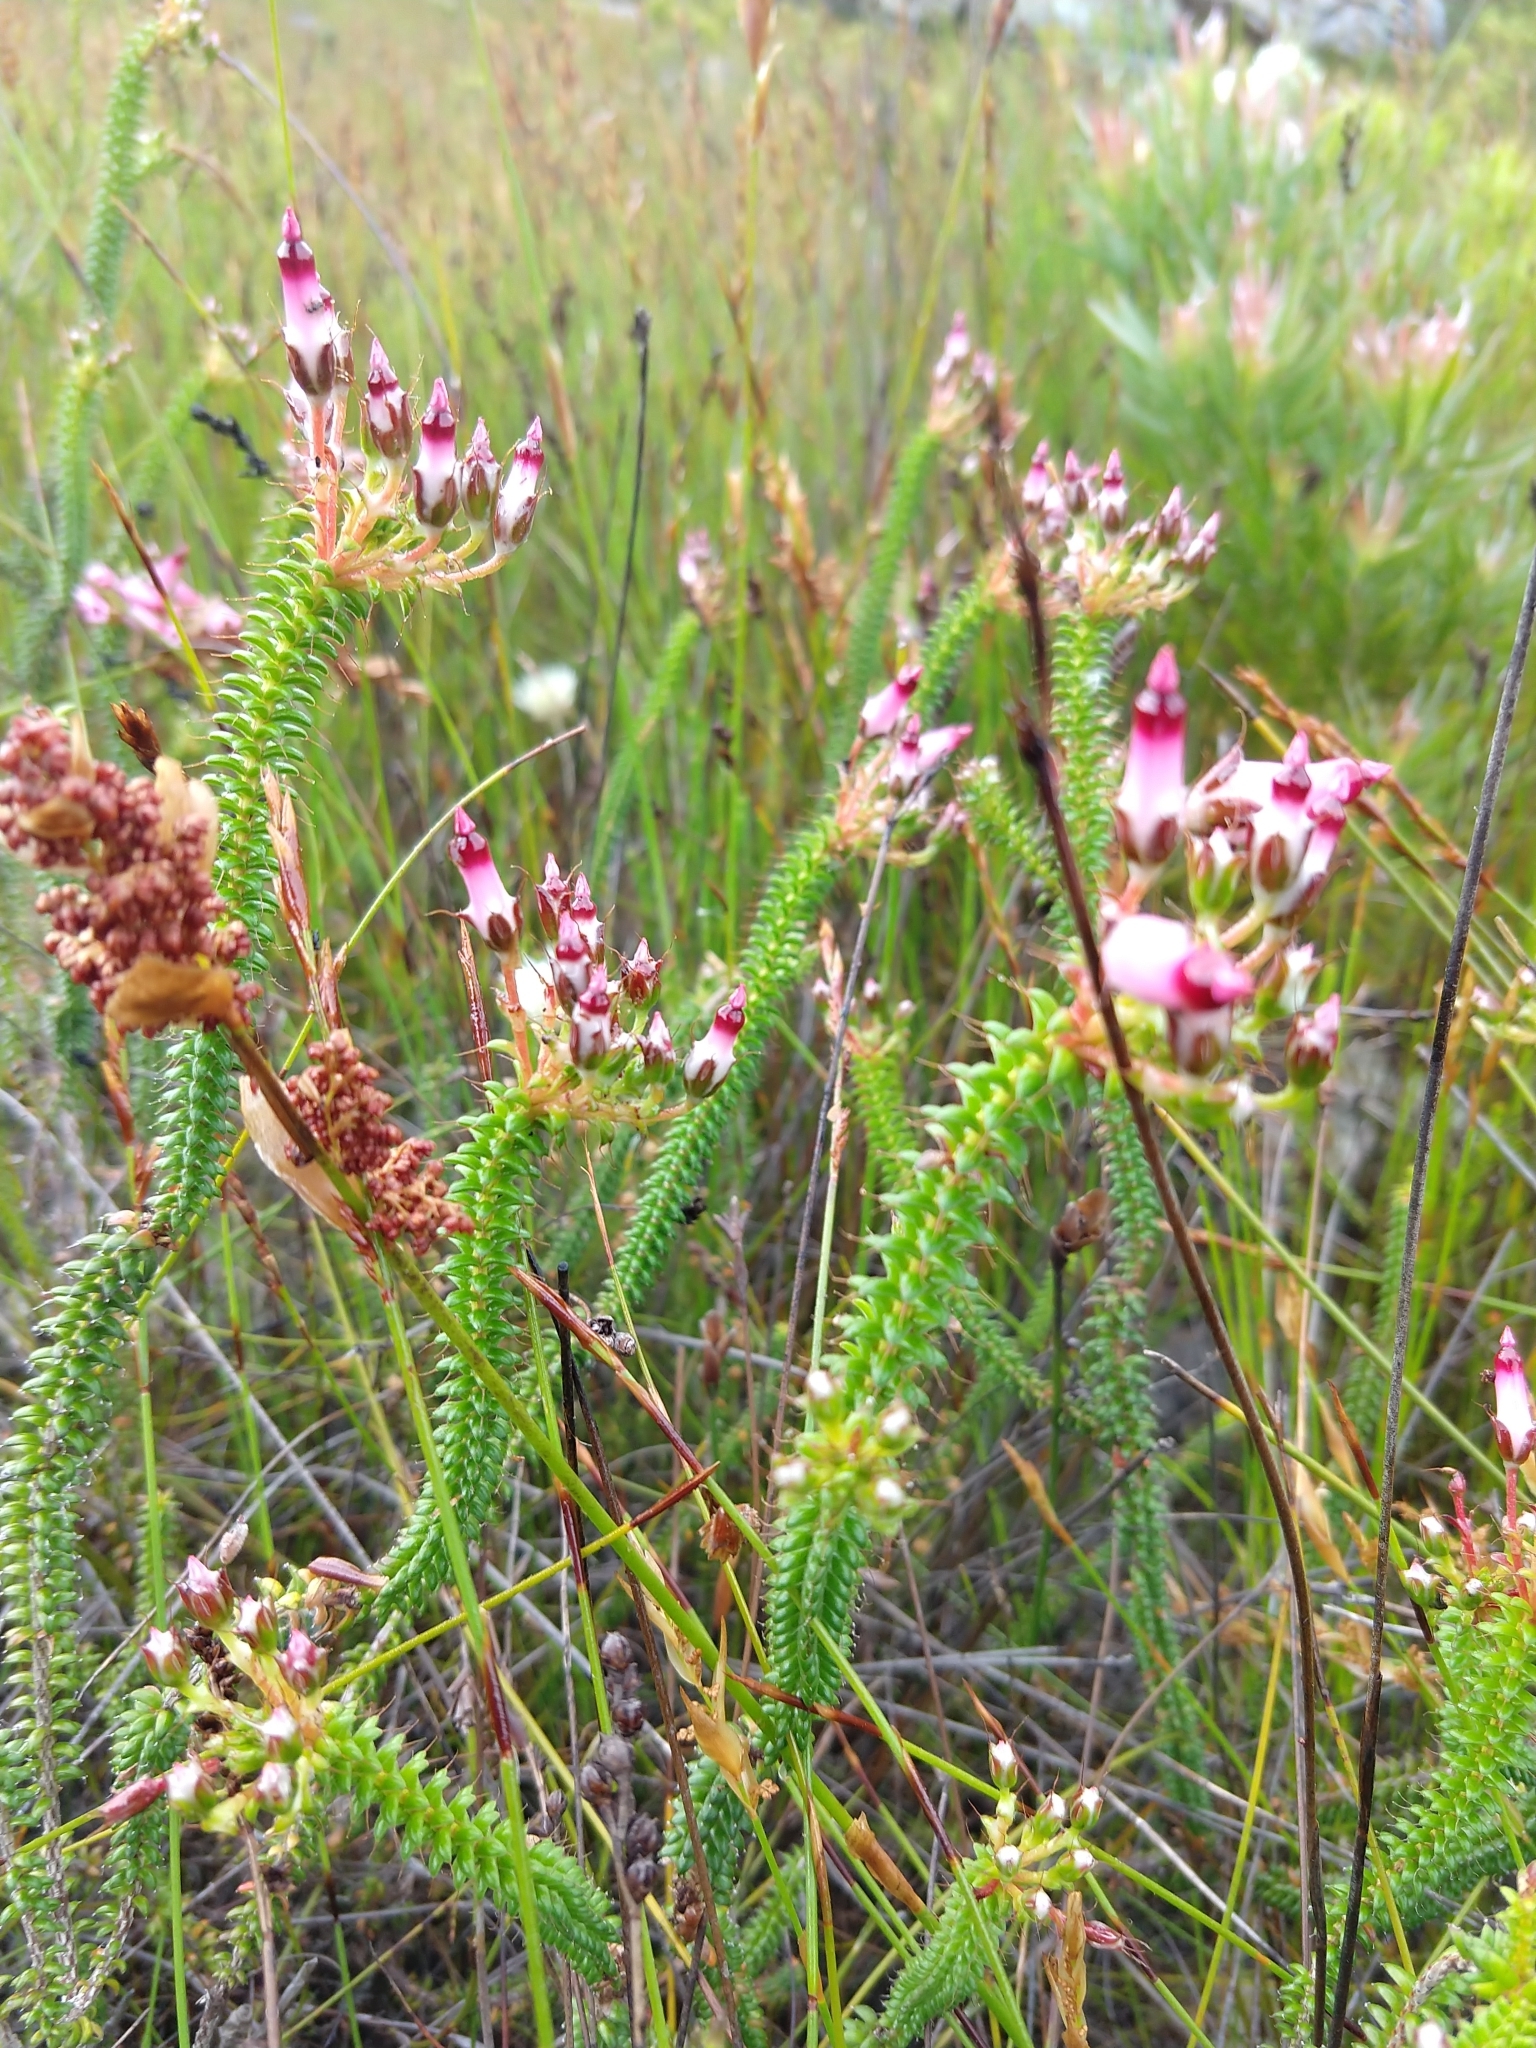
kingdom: Plantae
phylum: Tracheophyta
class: Magnoliopsida
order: Ericales
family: Ericaceae
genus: Erica
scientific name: Erica retorta
